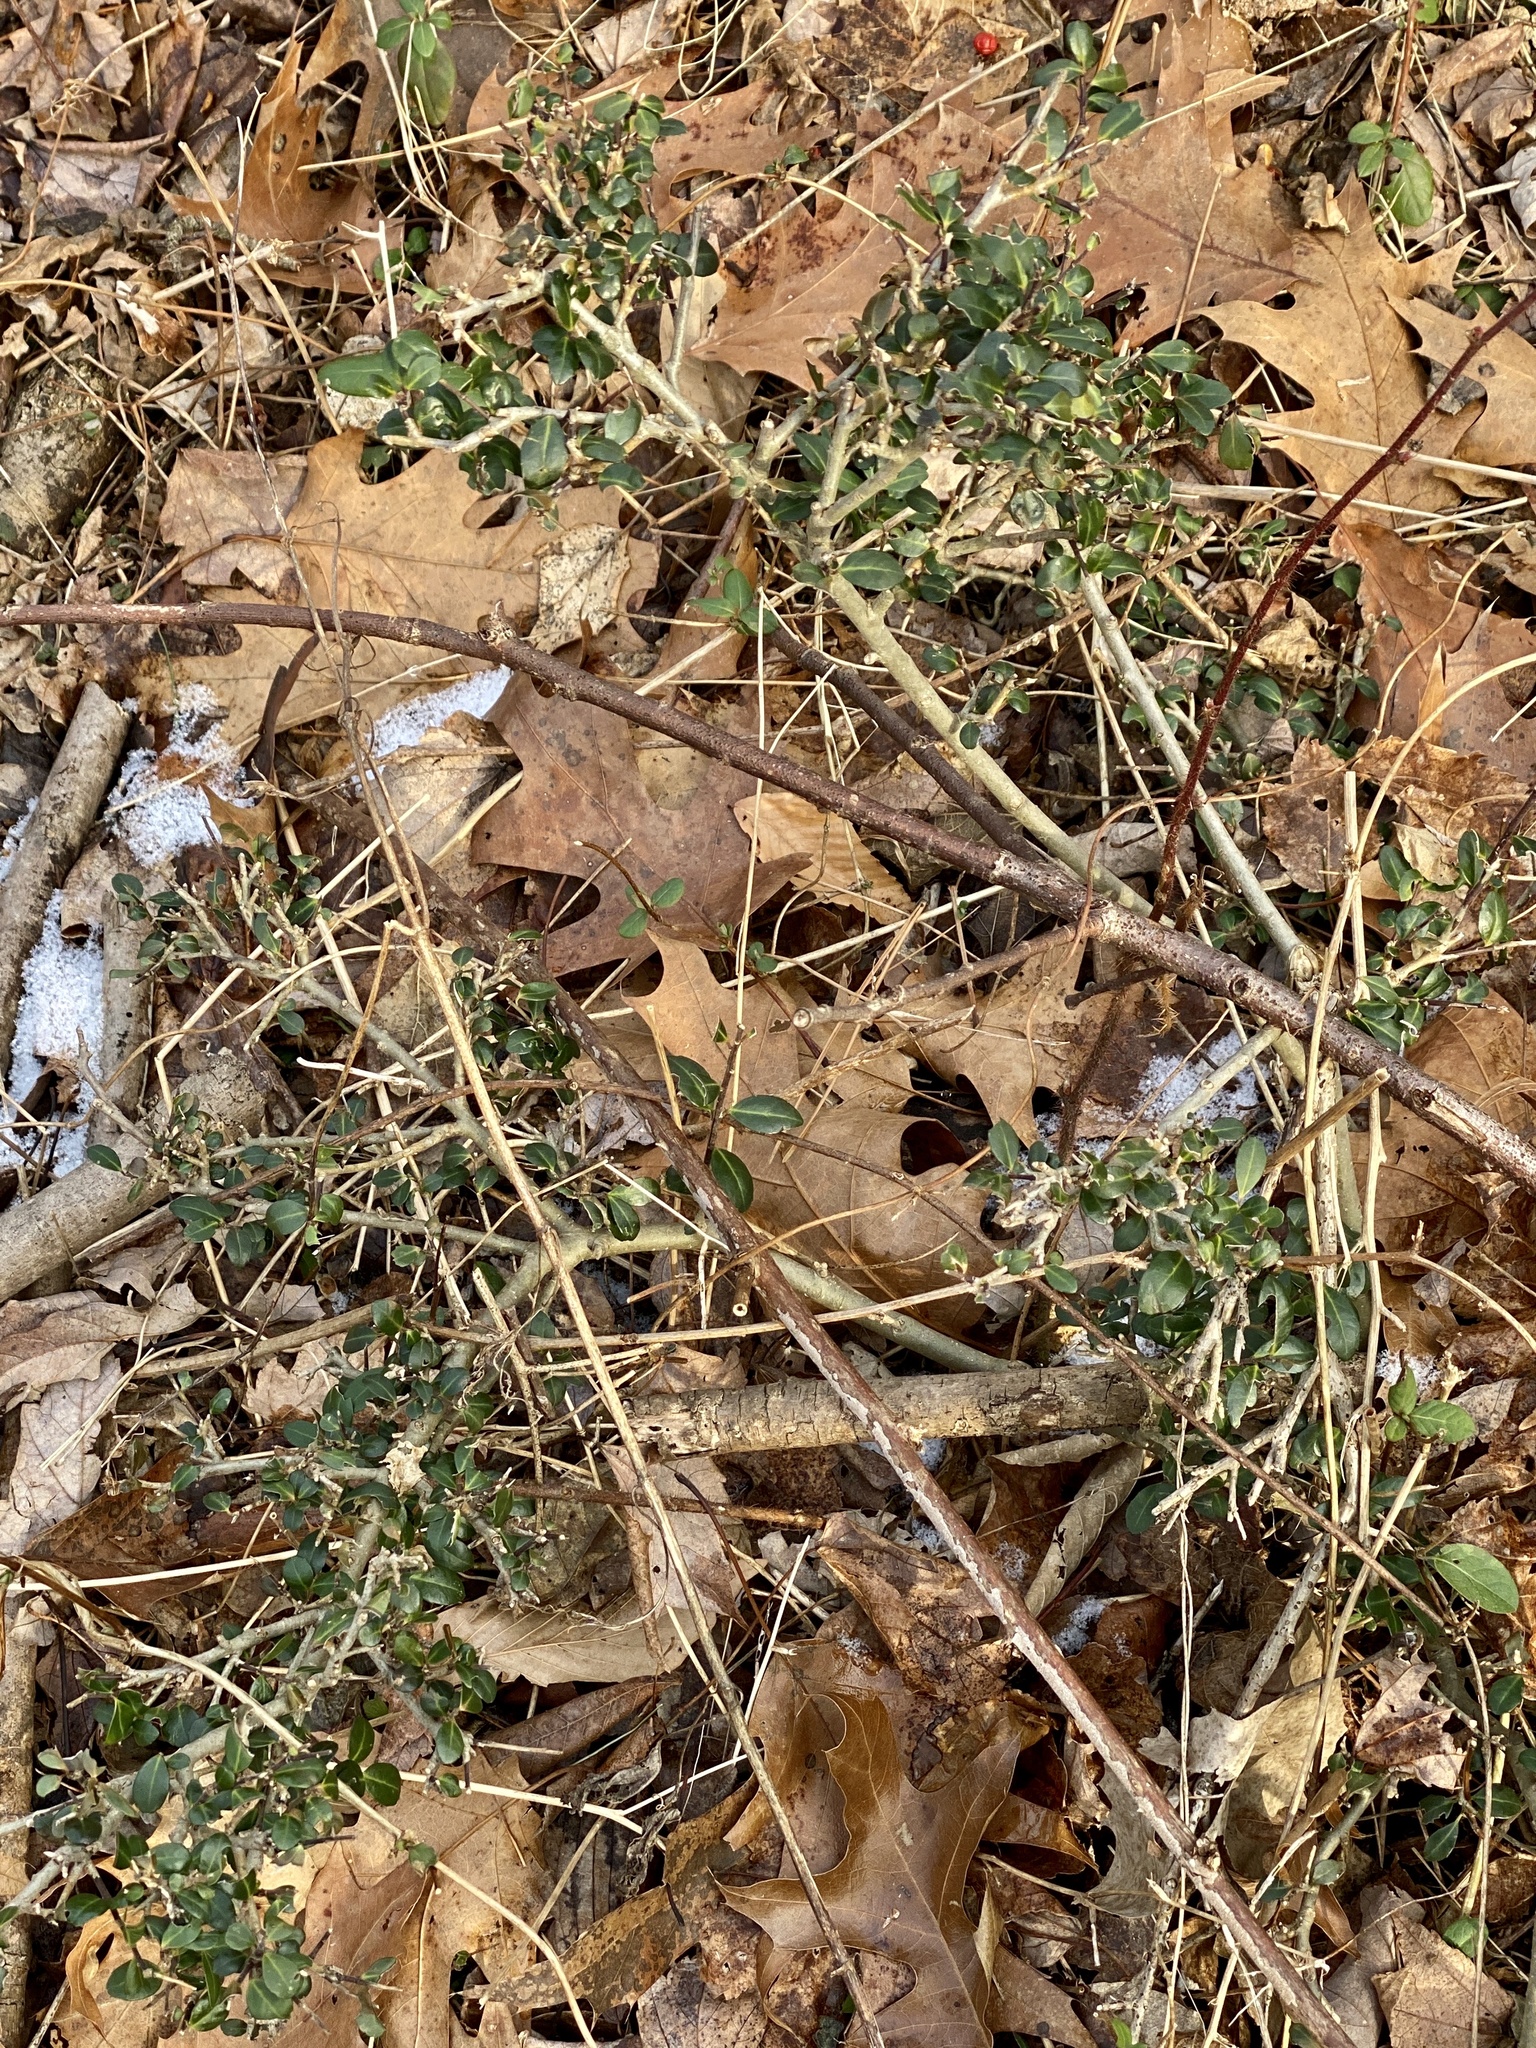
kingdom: Plantae
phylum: Tracheophyta
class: Magnoliopsida
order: Aquifoliales
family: Aquifoliaceae
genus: Ilex
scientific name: Ilex crenata
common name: Japanese holly
